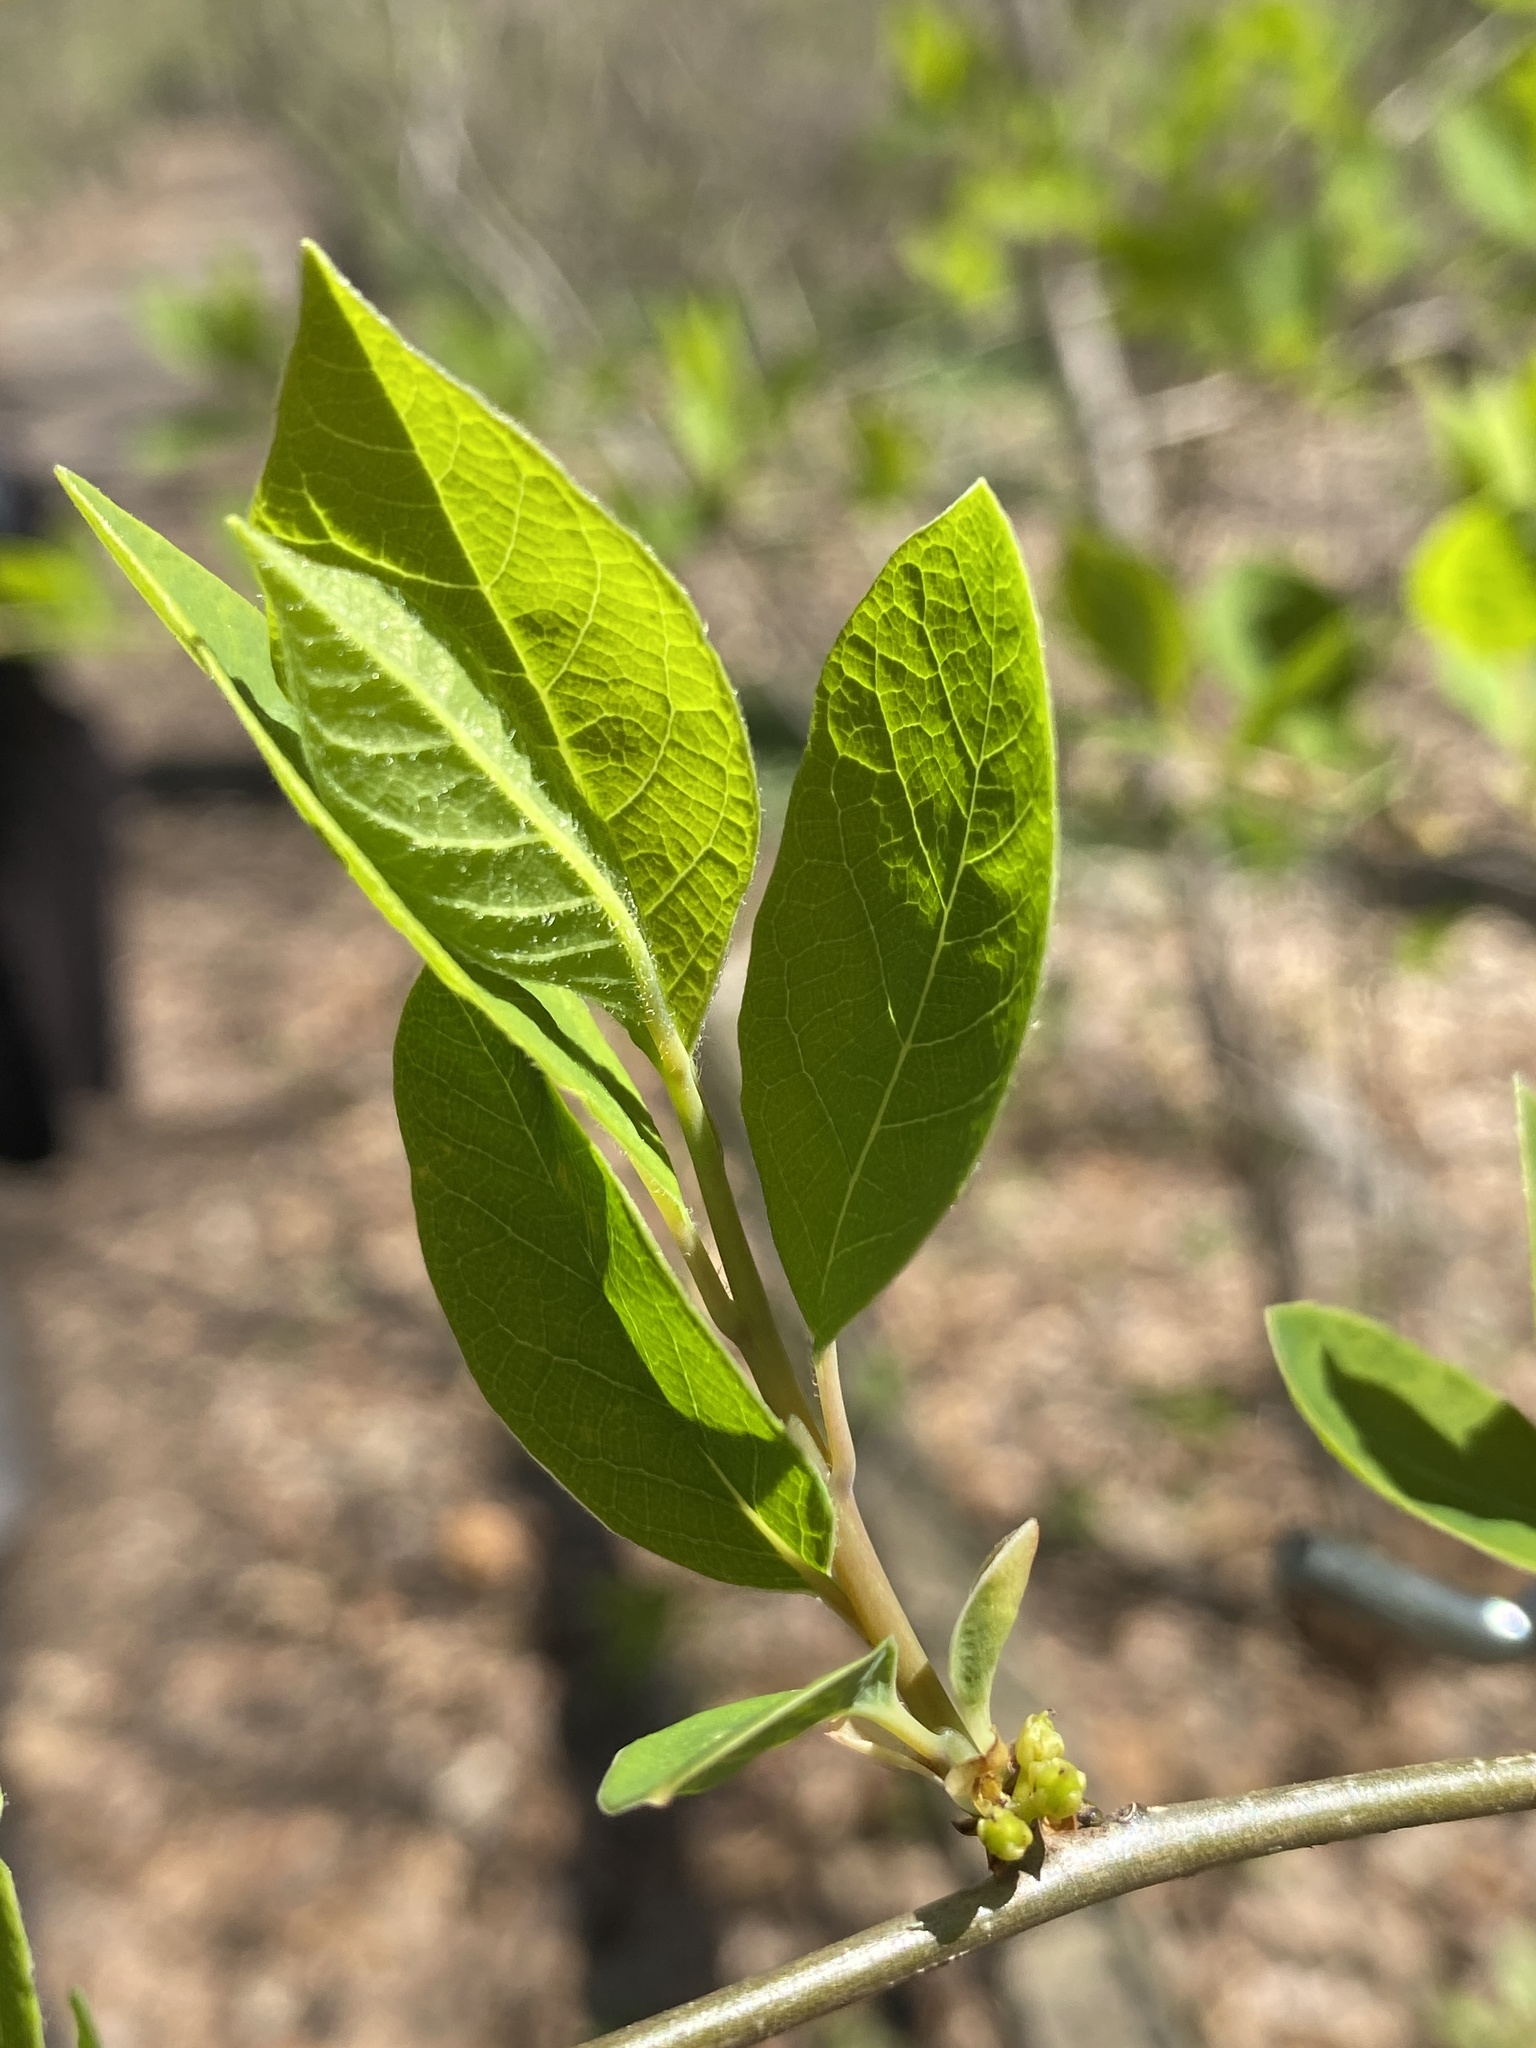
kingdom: Plantae
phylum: Tracheophyta
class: Magnoliopsida
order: Laurales
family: Lauraceae
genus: Lindera
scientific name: Lindera benzoin
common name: Spicebush
